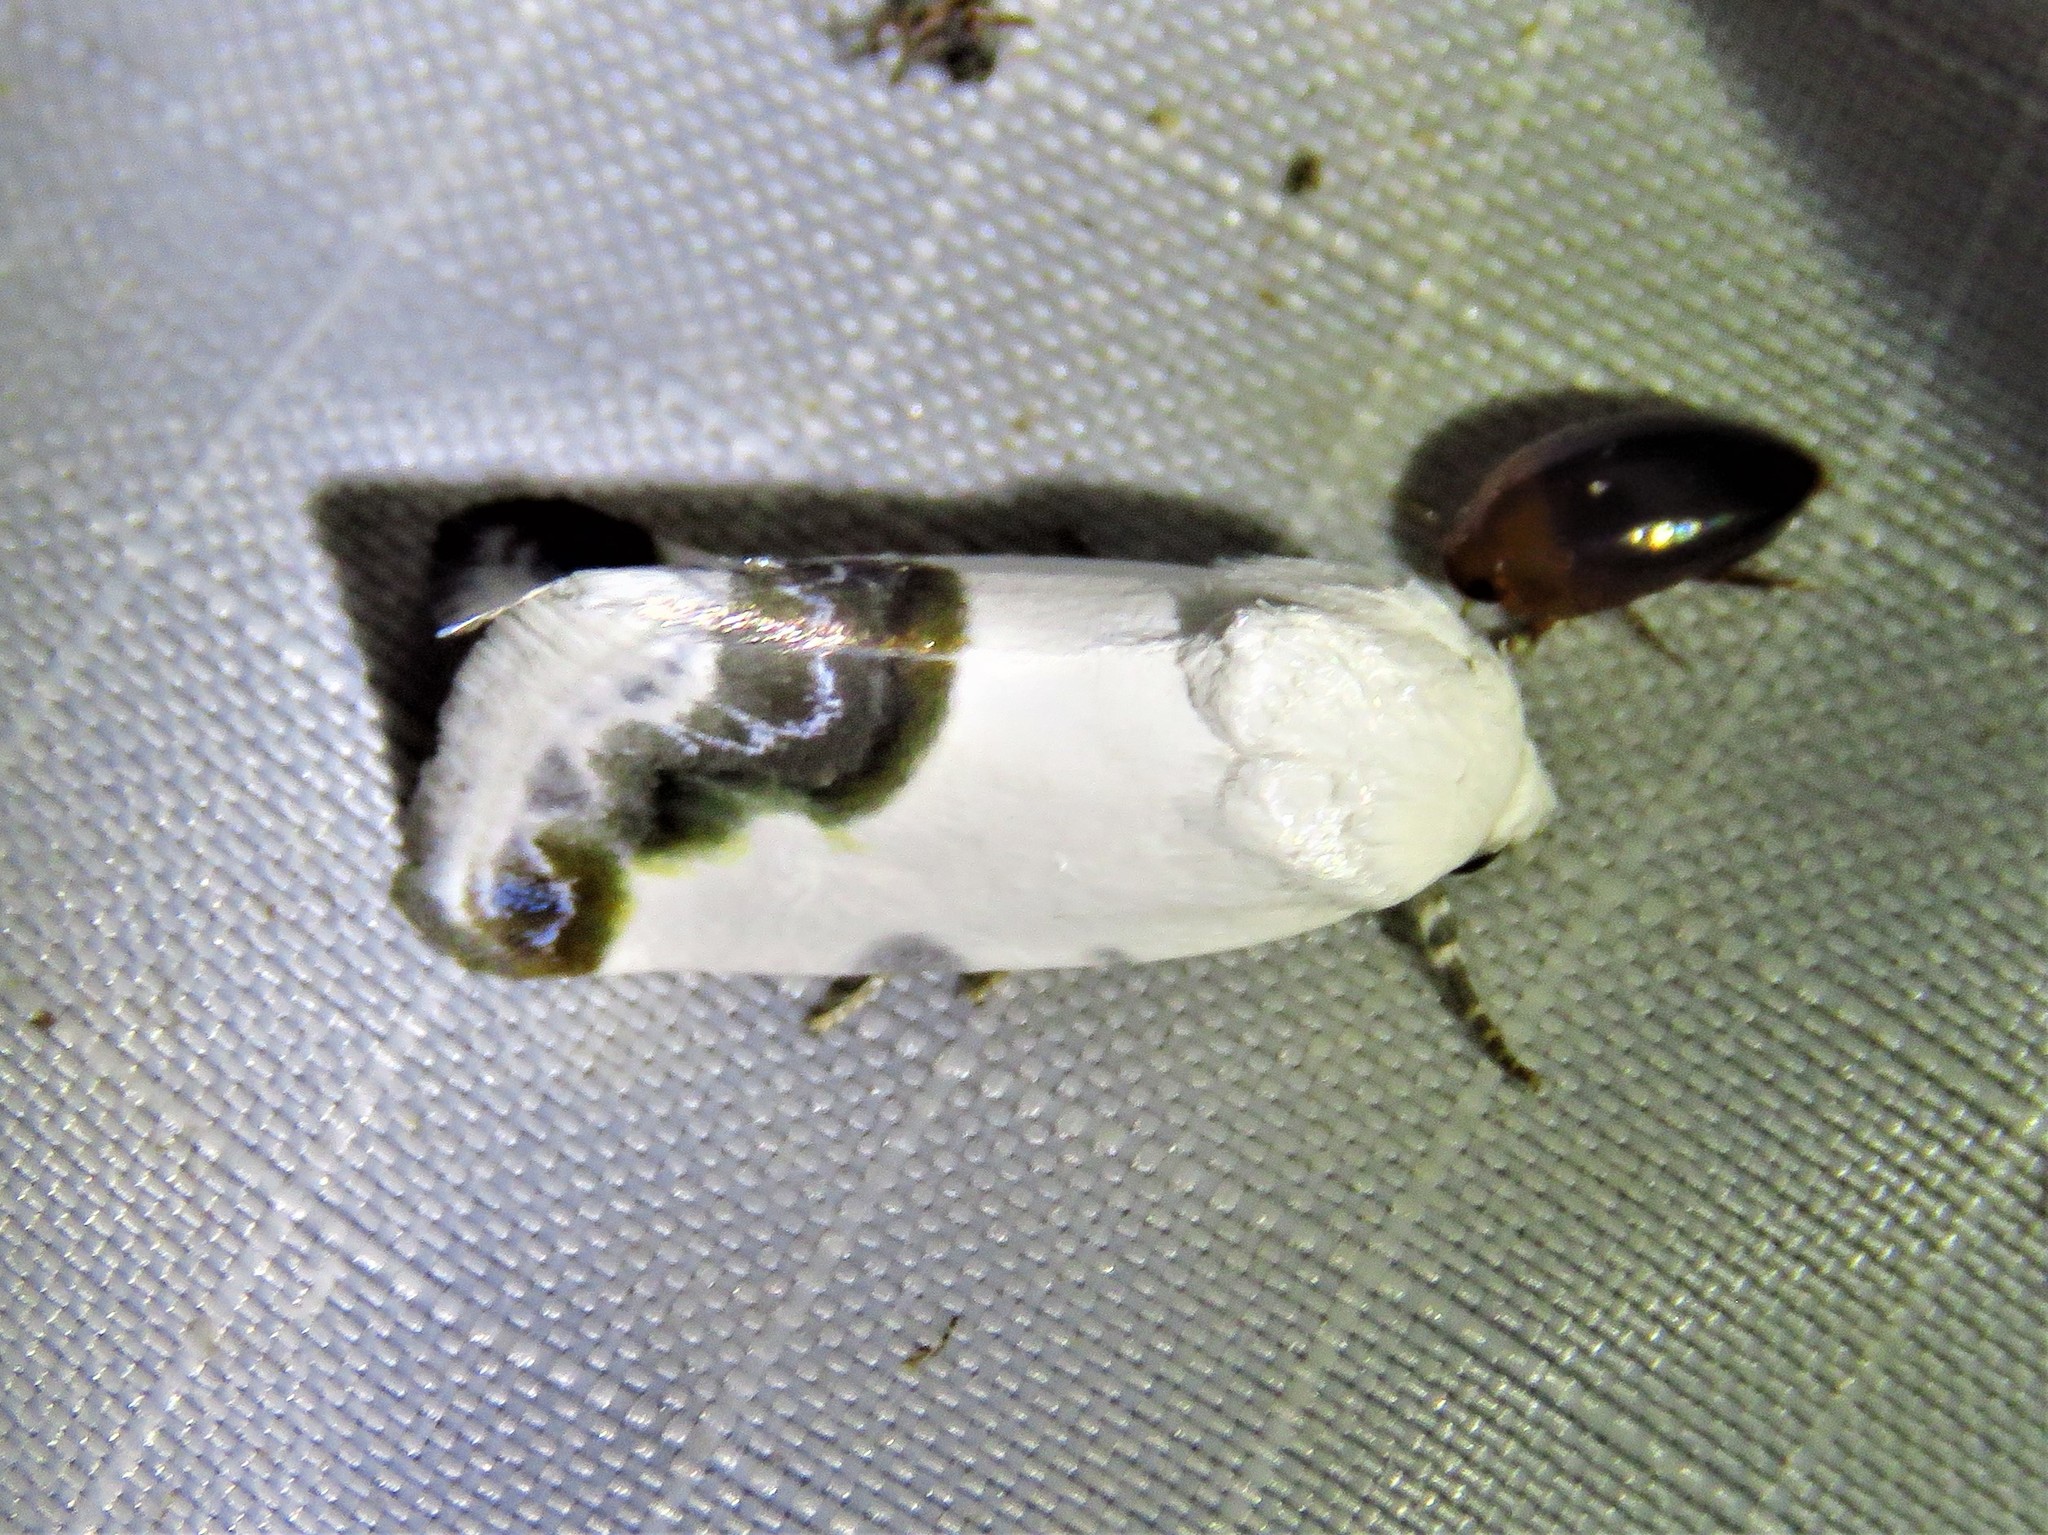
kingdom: Animalia
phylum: Arthropoda
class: Insecta
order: Lepidoptera
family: Noctuidae
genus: Acontia
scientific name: Acontia cretata
